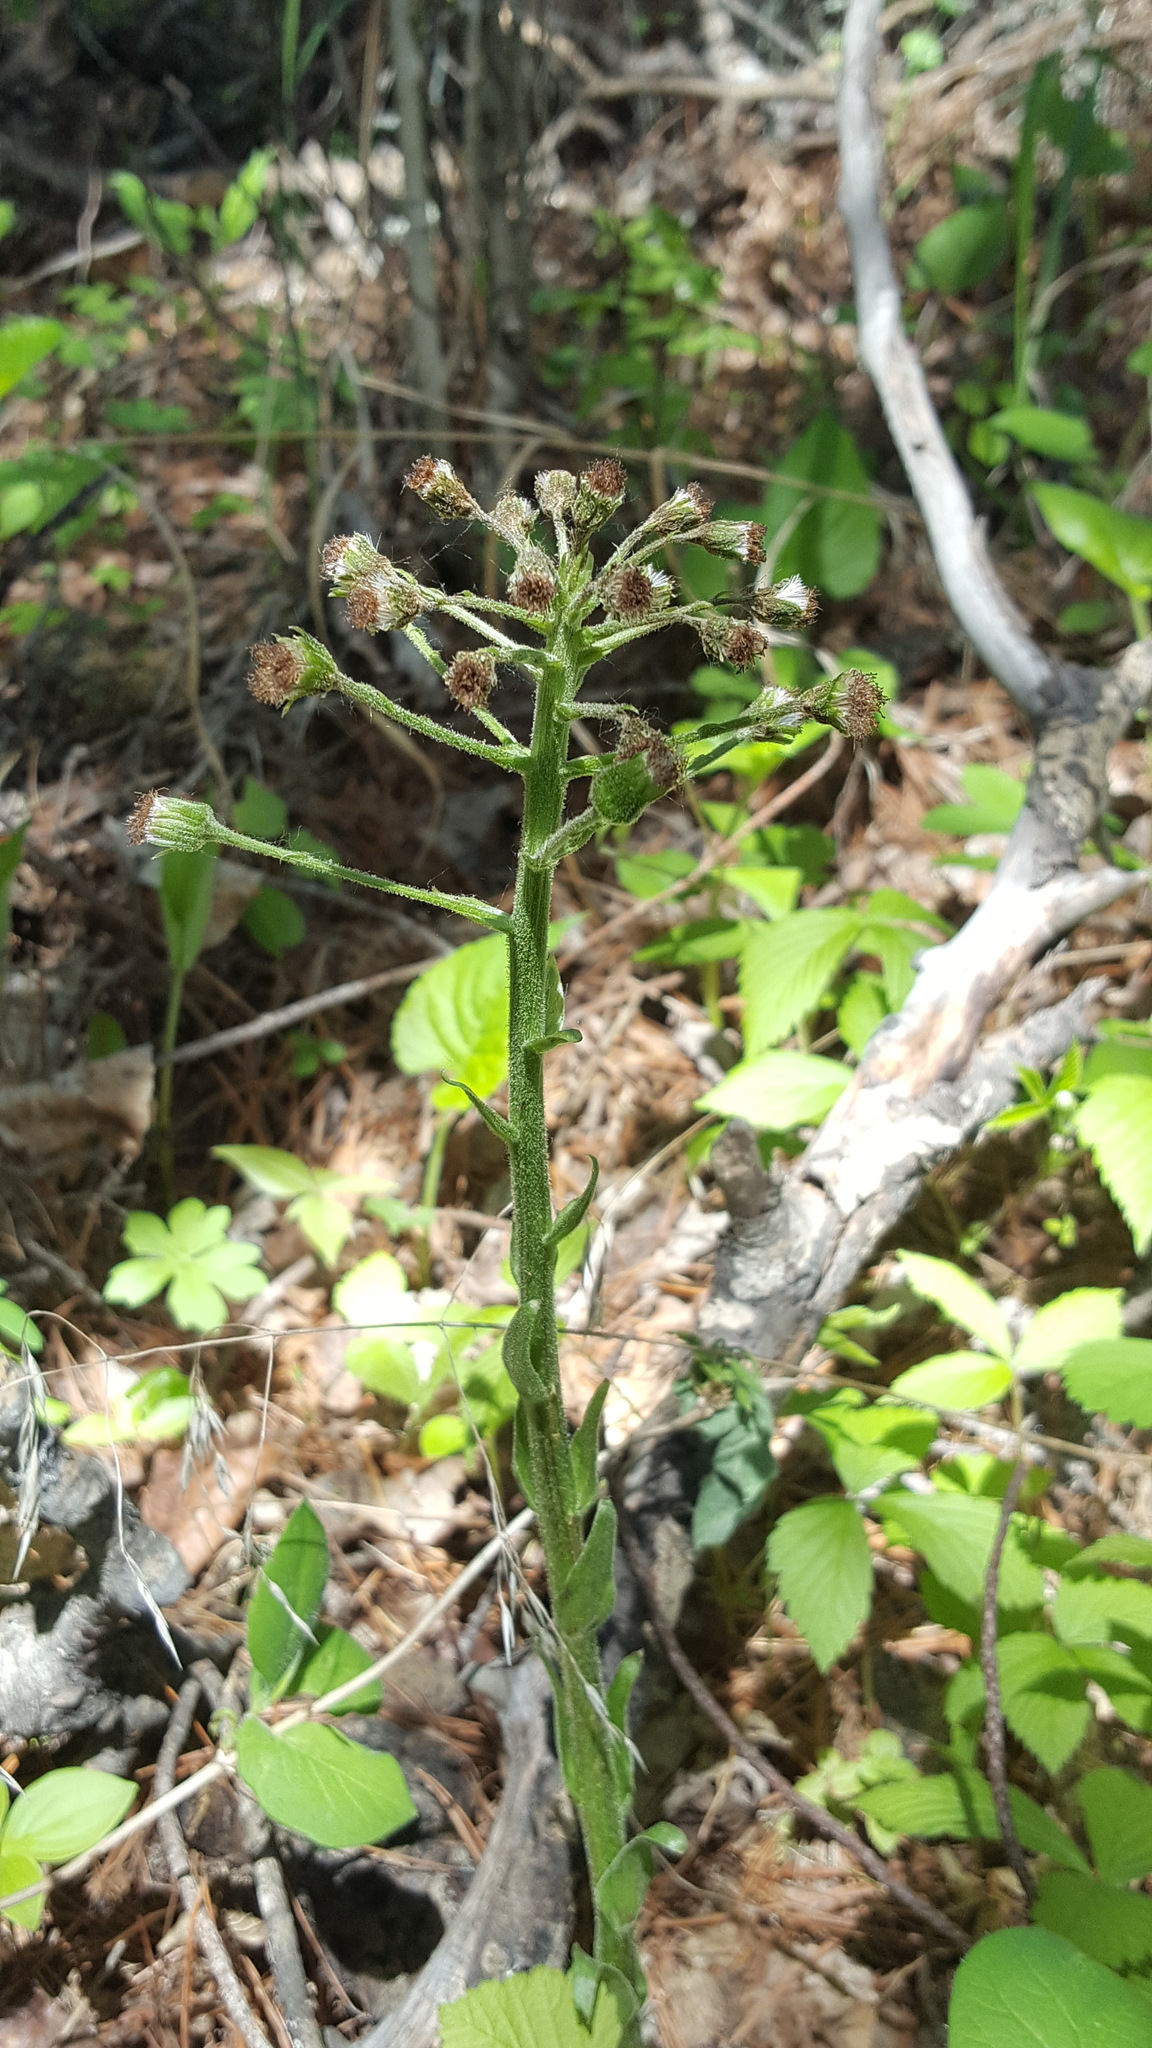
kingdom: Plantae
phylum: Tracheophyta
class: Magnoliopsida
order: Asterales
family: Asteraceae
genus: Petasites
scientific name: Petasites frigidus
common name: Arctic butterbur
